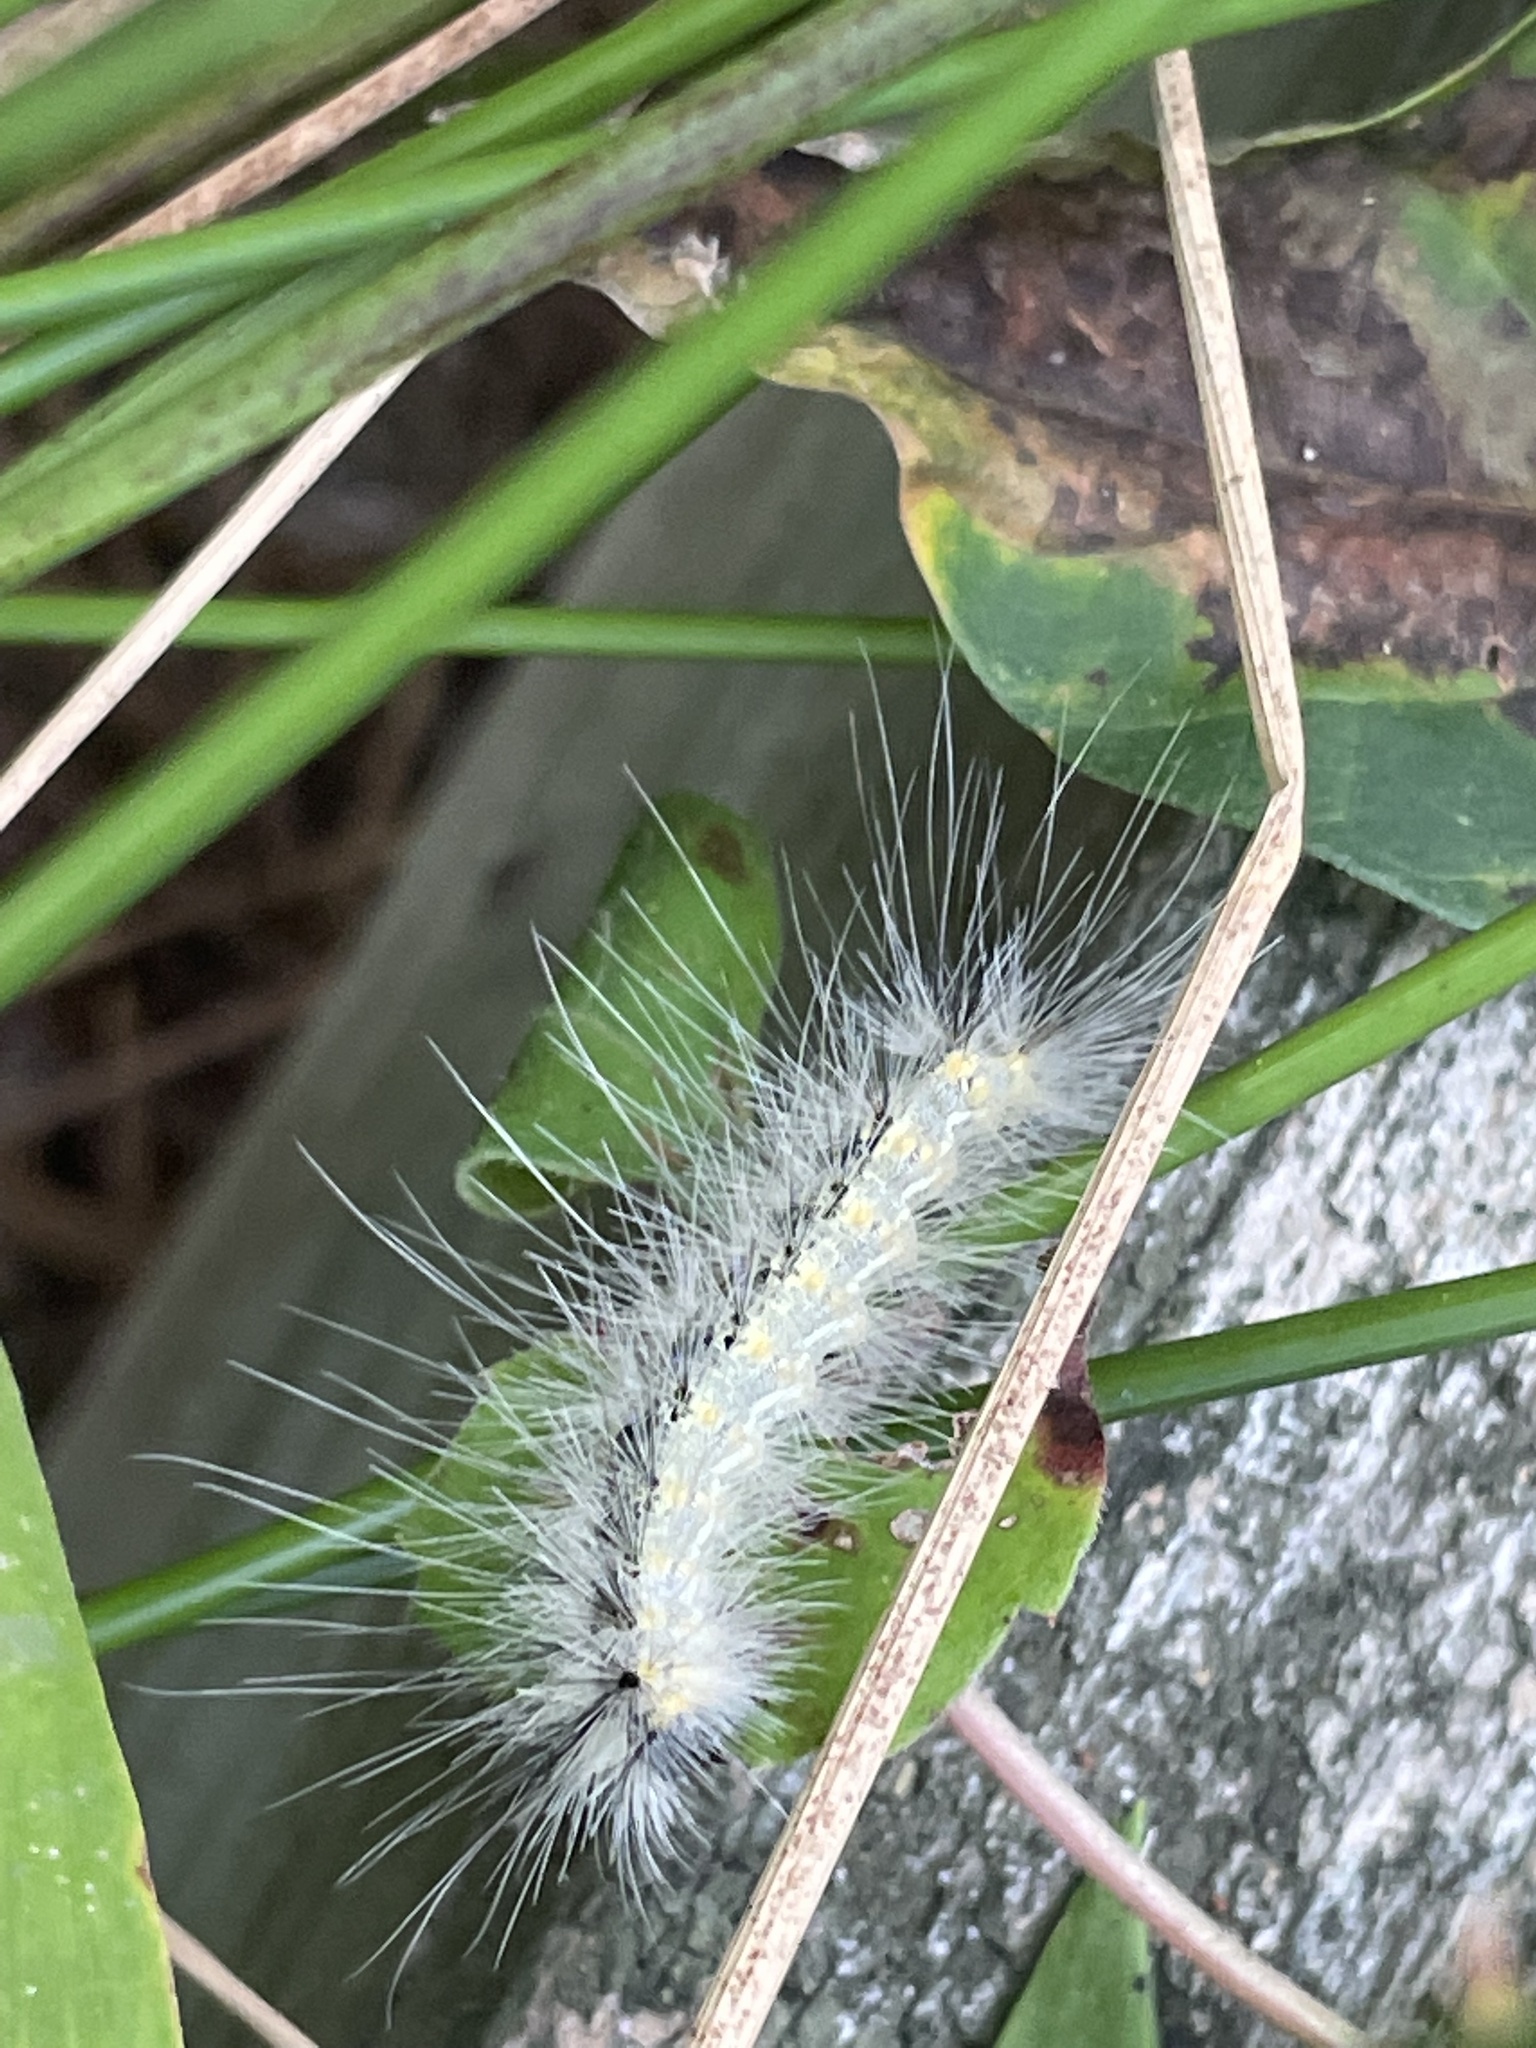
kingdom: Animalia
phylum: Arthropoda
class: Insecta
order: Lepidoptera
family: Erebidae
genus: Hyphantria
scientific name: Hyphantria cunea
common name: American white moth
